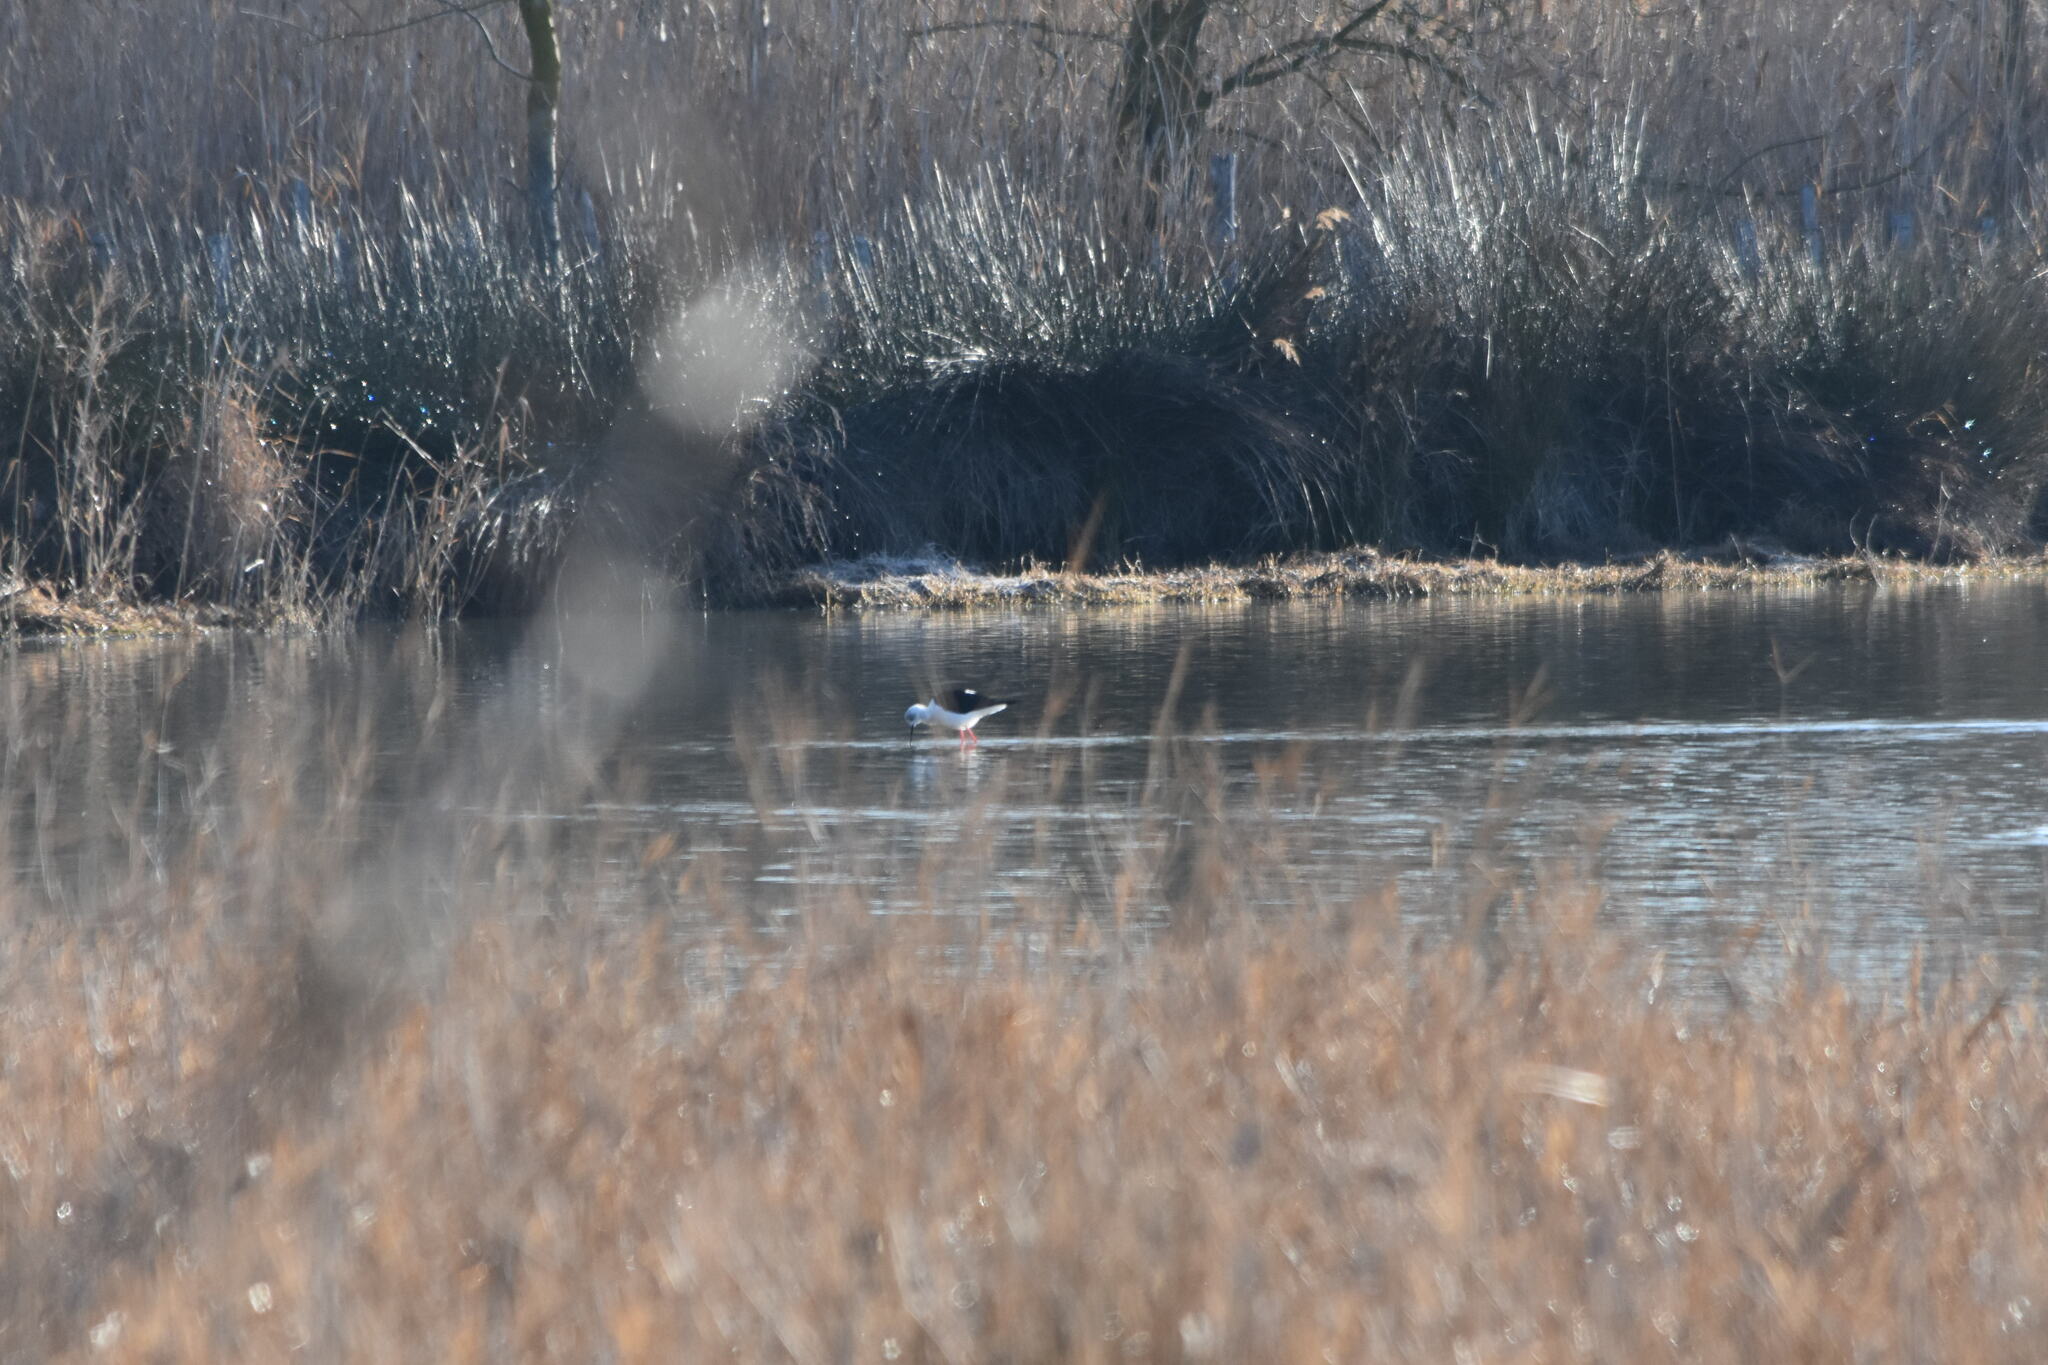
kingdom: Animalia
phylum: Chordata
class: Aves
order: Charadriiformes
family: Recurvirostridae
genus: Himantopus
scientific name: Himantopus himantopus
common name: Black-winged stilt
